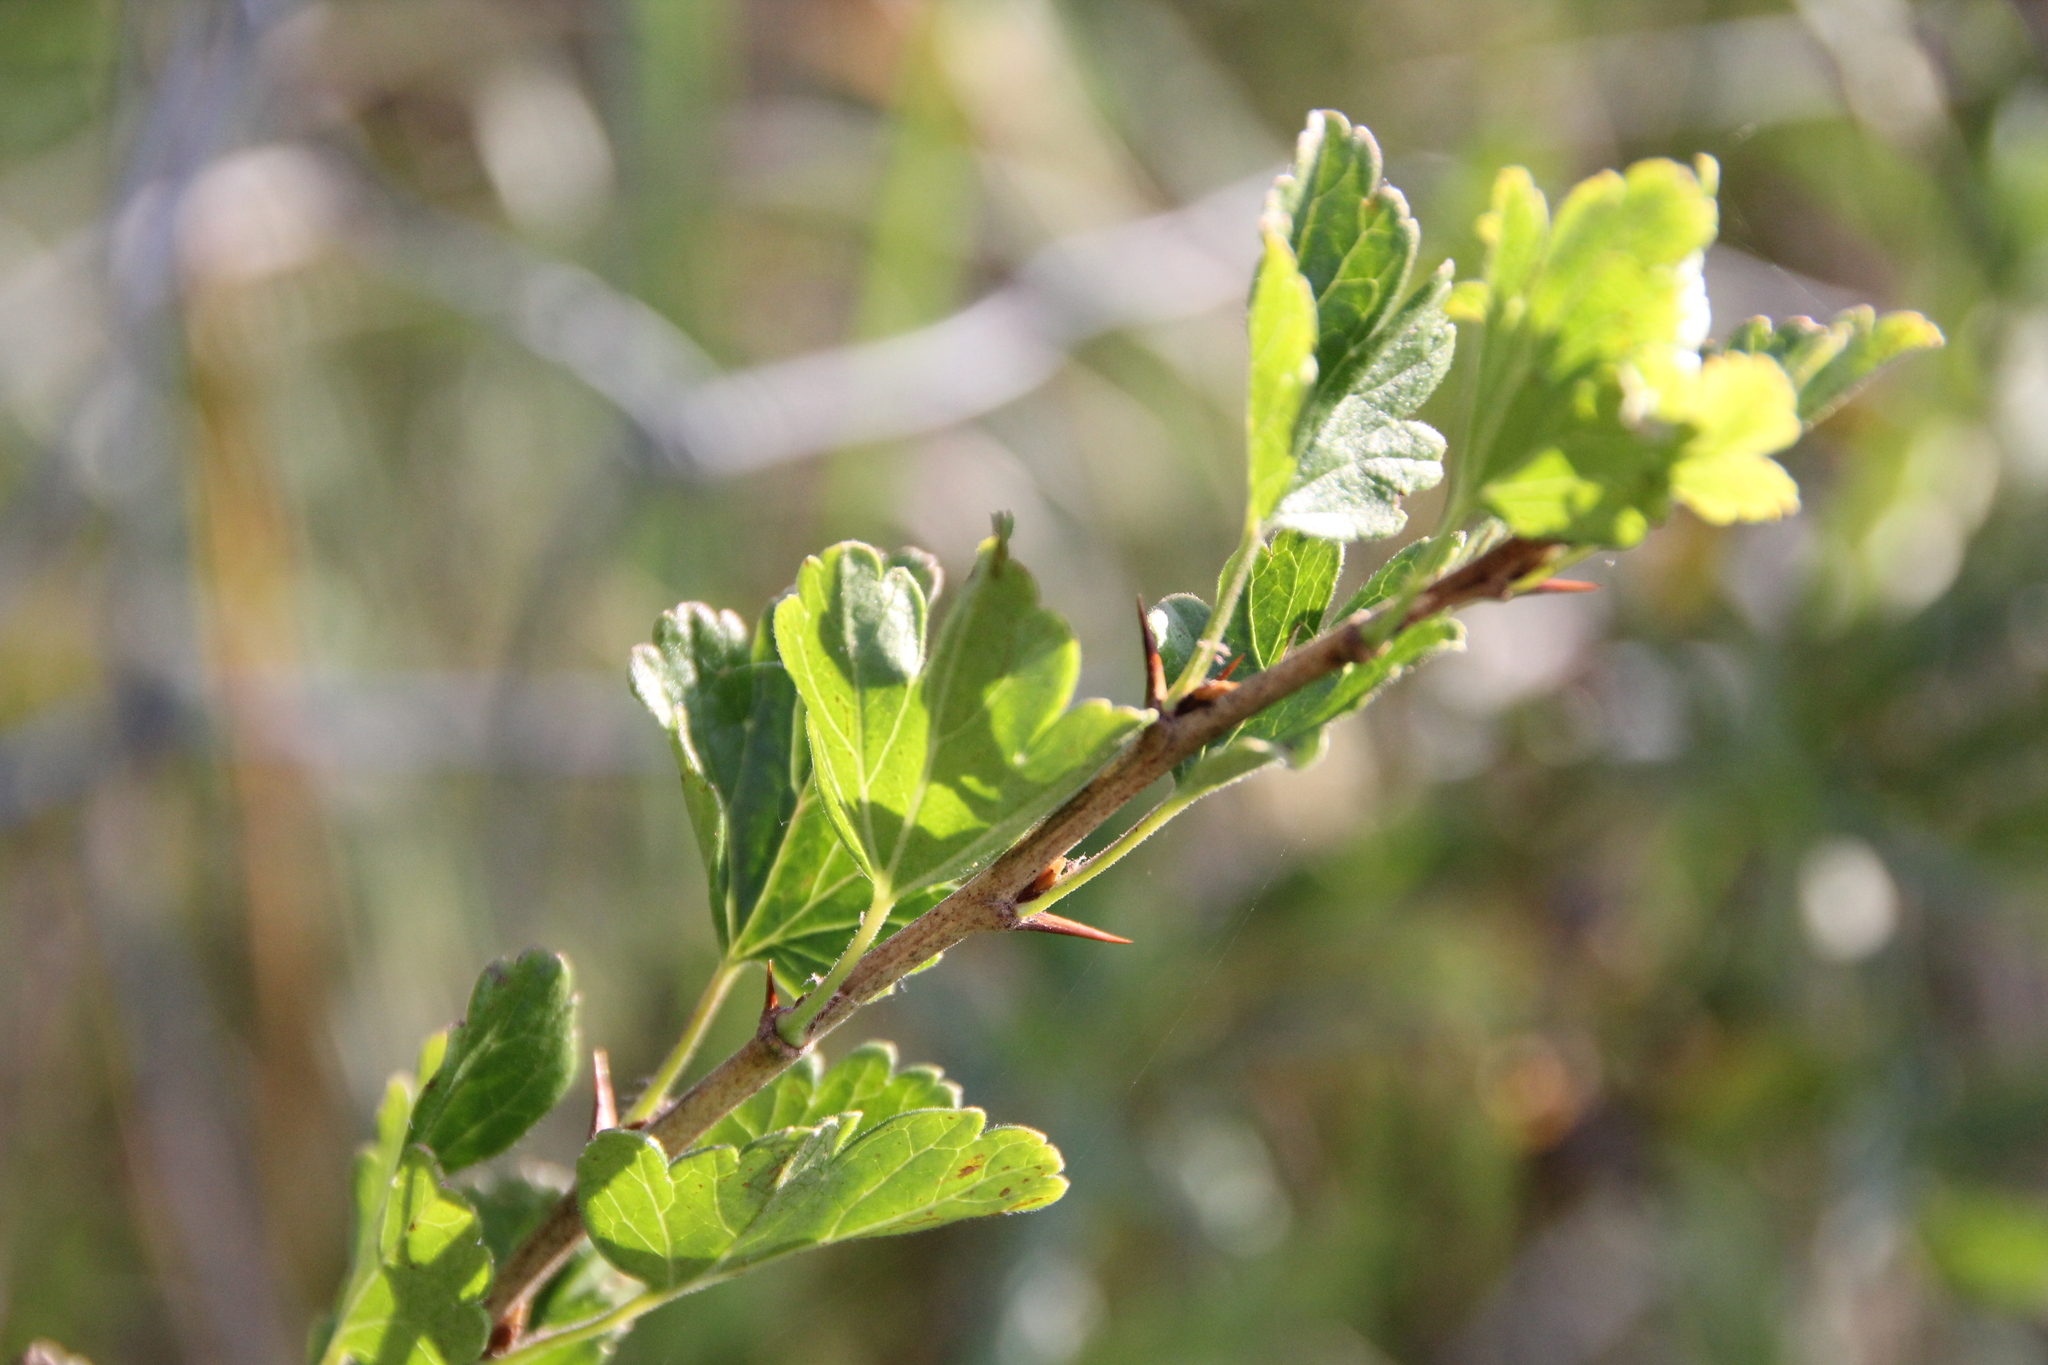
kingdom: Plantae
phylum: Tracheophyta
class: Magnoliopsida
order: Saxifragales
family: Grossulariaceae
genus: Ribes
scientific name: Ribes uva-crispa
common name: Gooseberry
